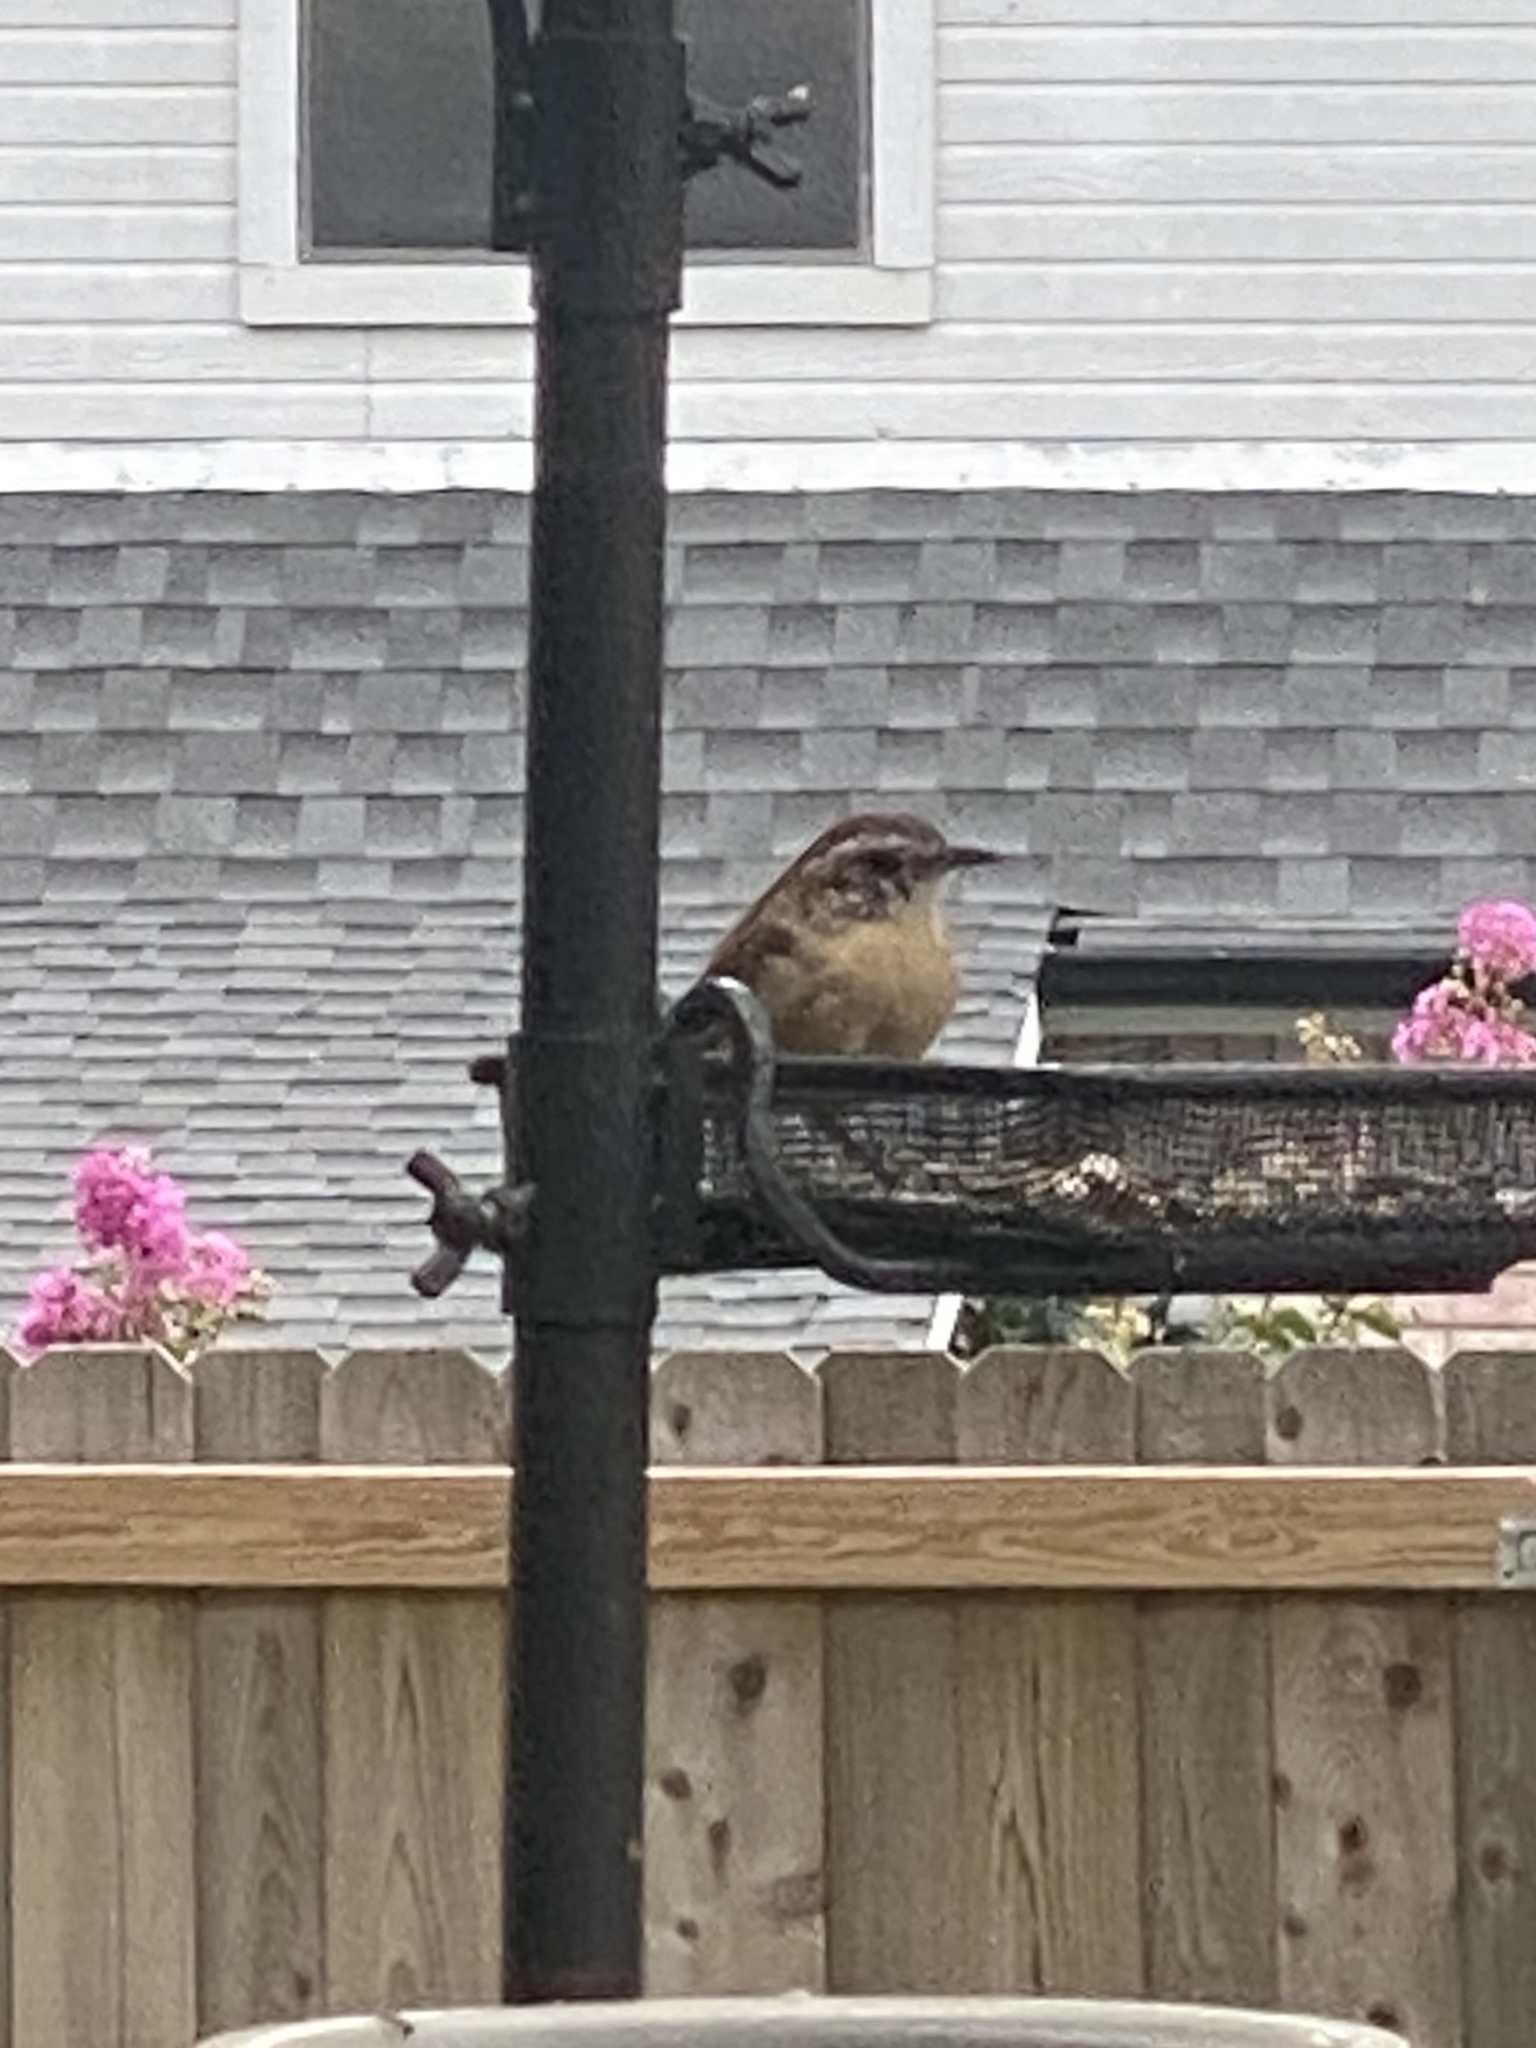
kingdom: Animalia
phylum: Chordata
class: Aves
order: Passeriformes
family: Troglodytidae
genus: Thryothorus
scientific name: Thryothorus ludovicianus
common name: Carolina wren
